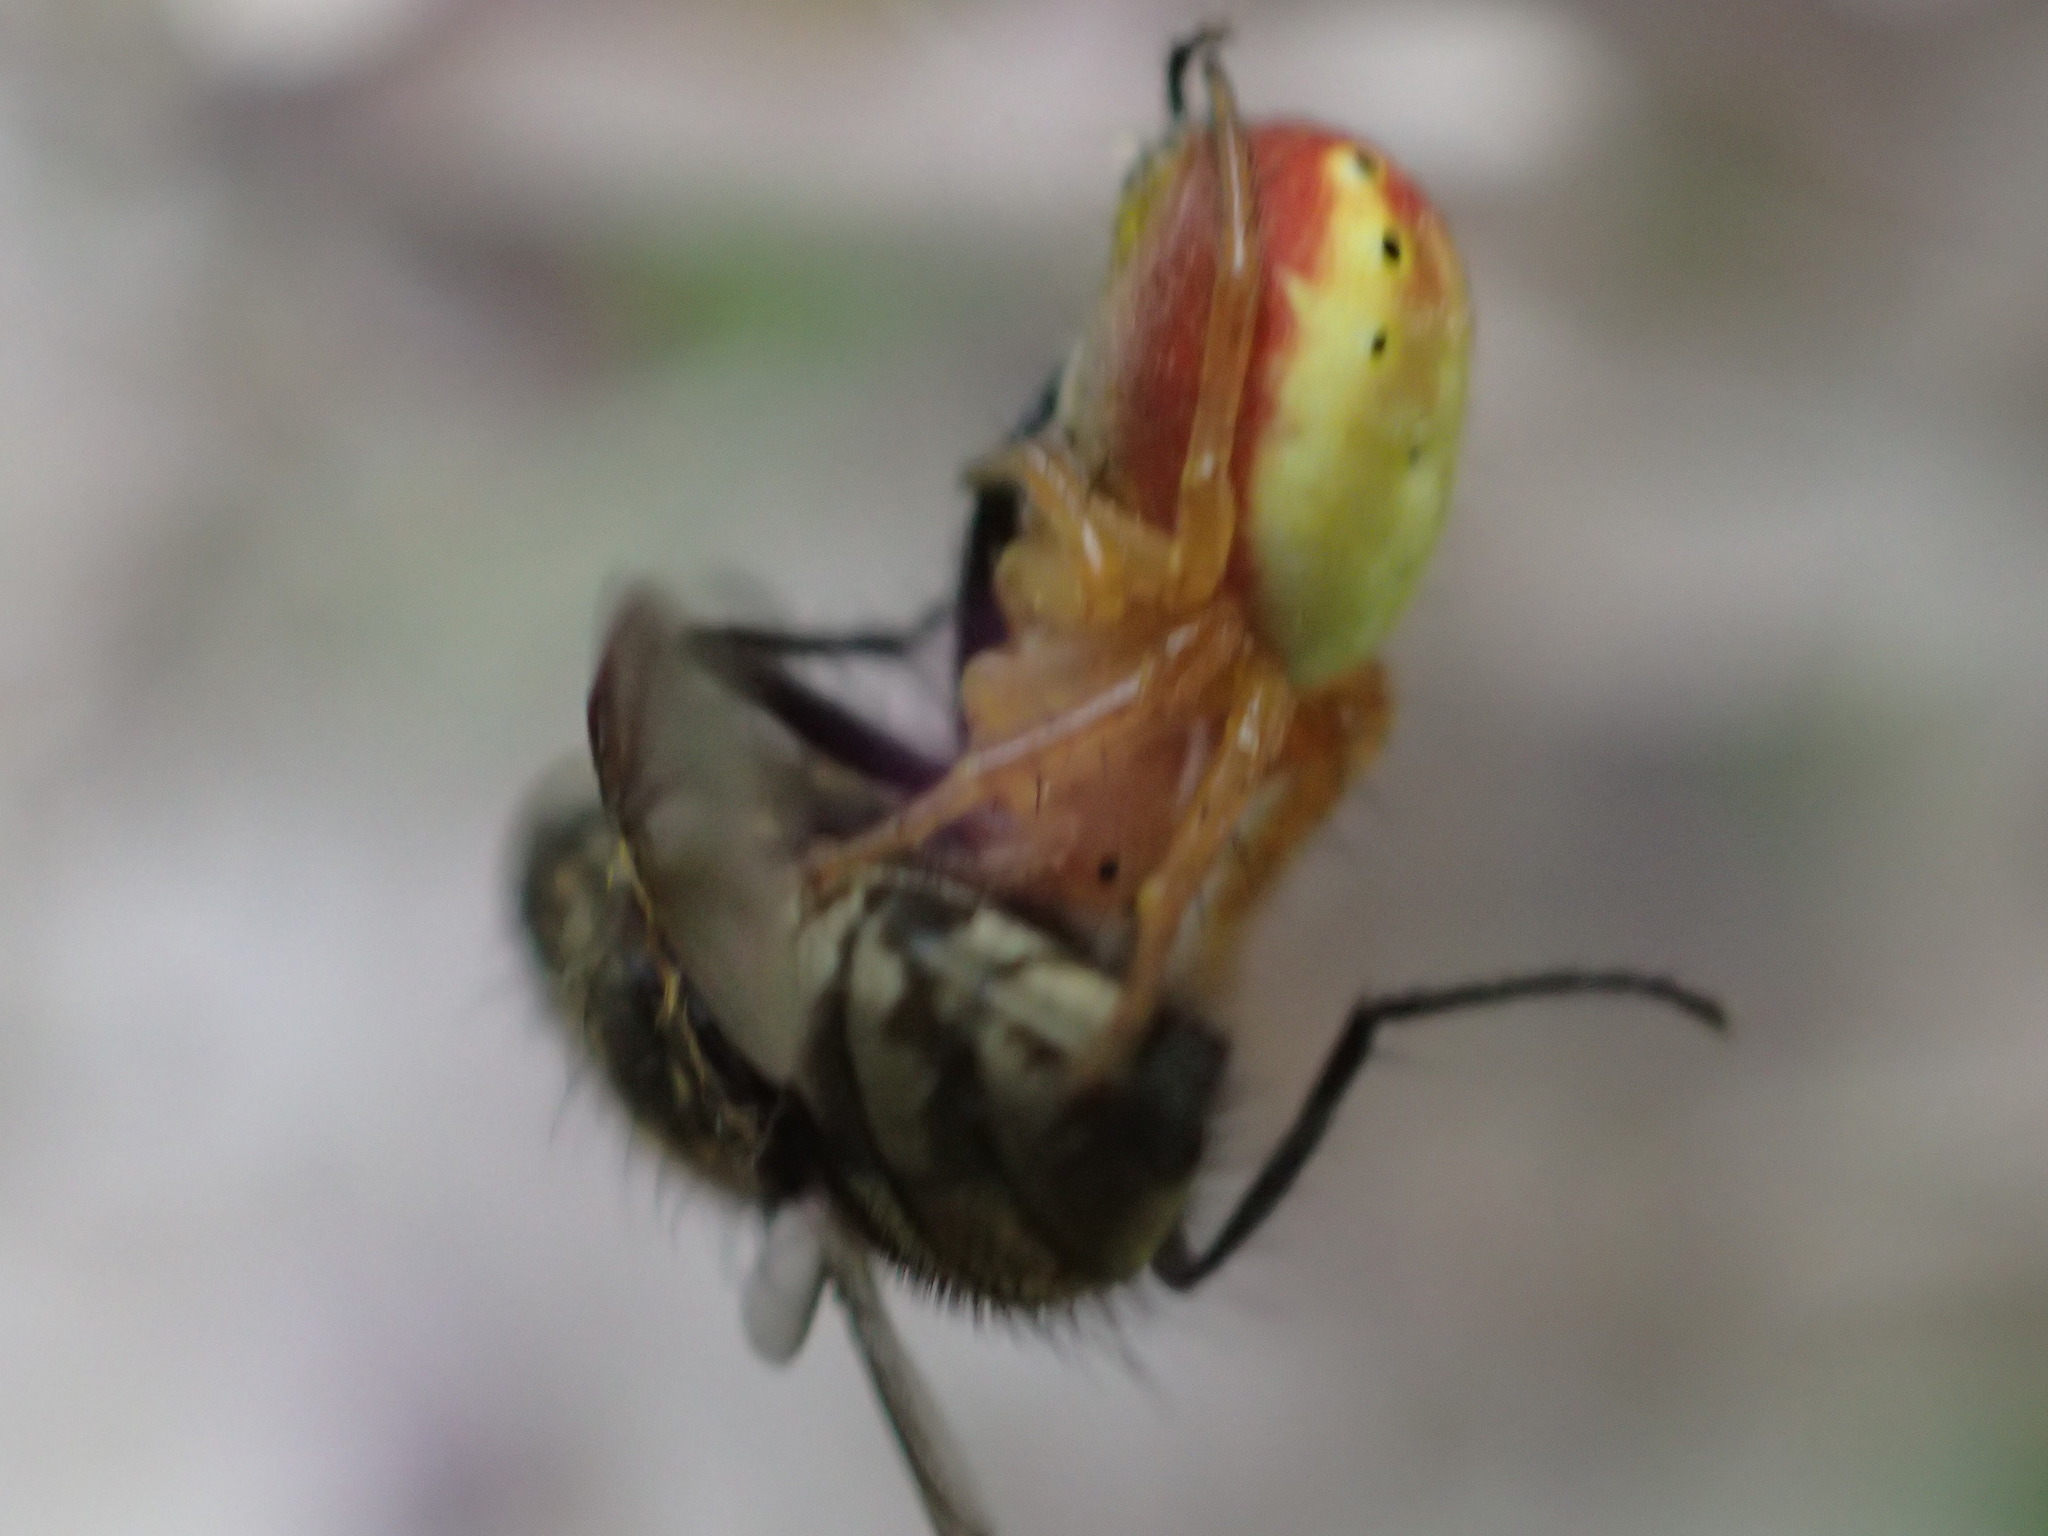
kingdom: Animalia
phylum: Arthropoda
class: Arachnida
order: Araneae
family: Araneidae
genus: Araniella
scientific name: Araniella displicata
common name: Sixspotted orb weaver
